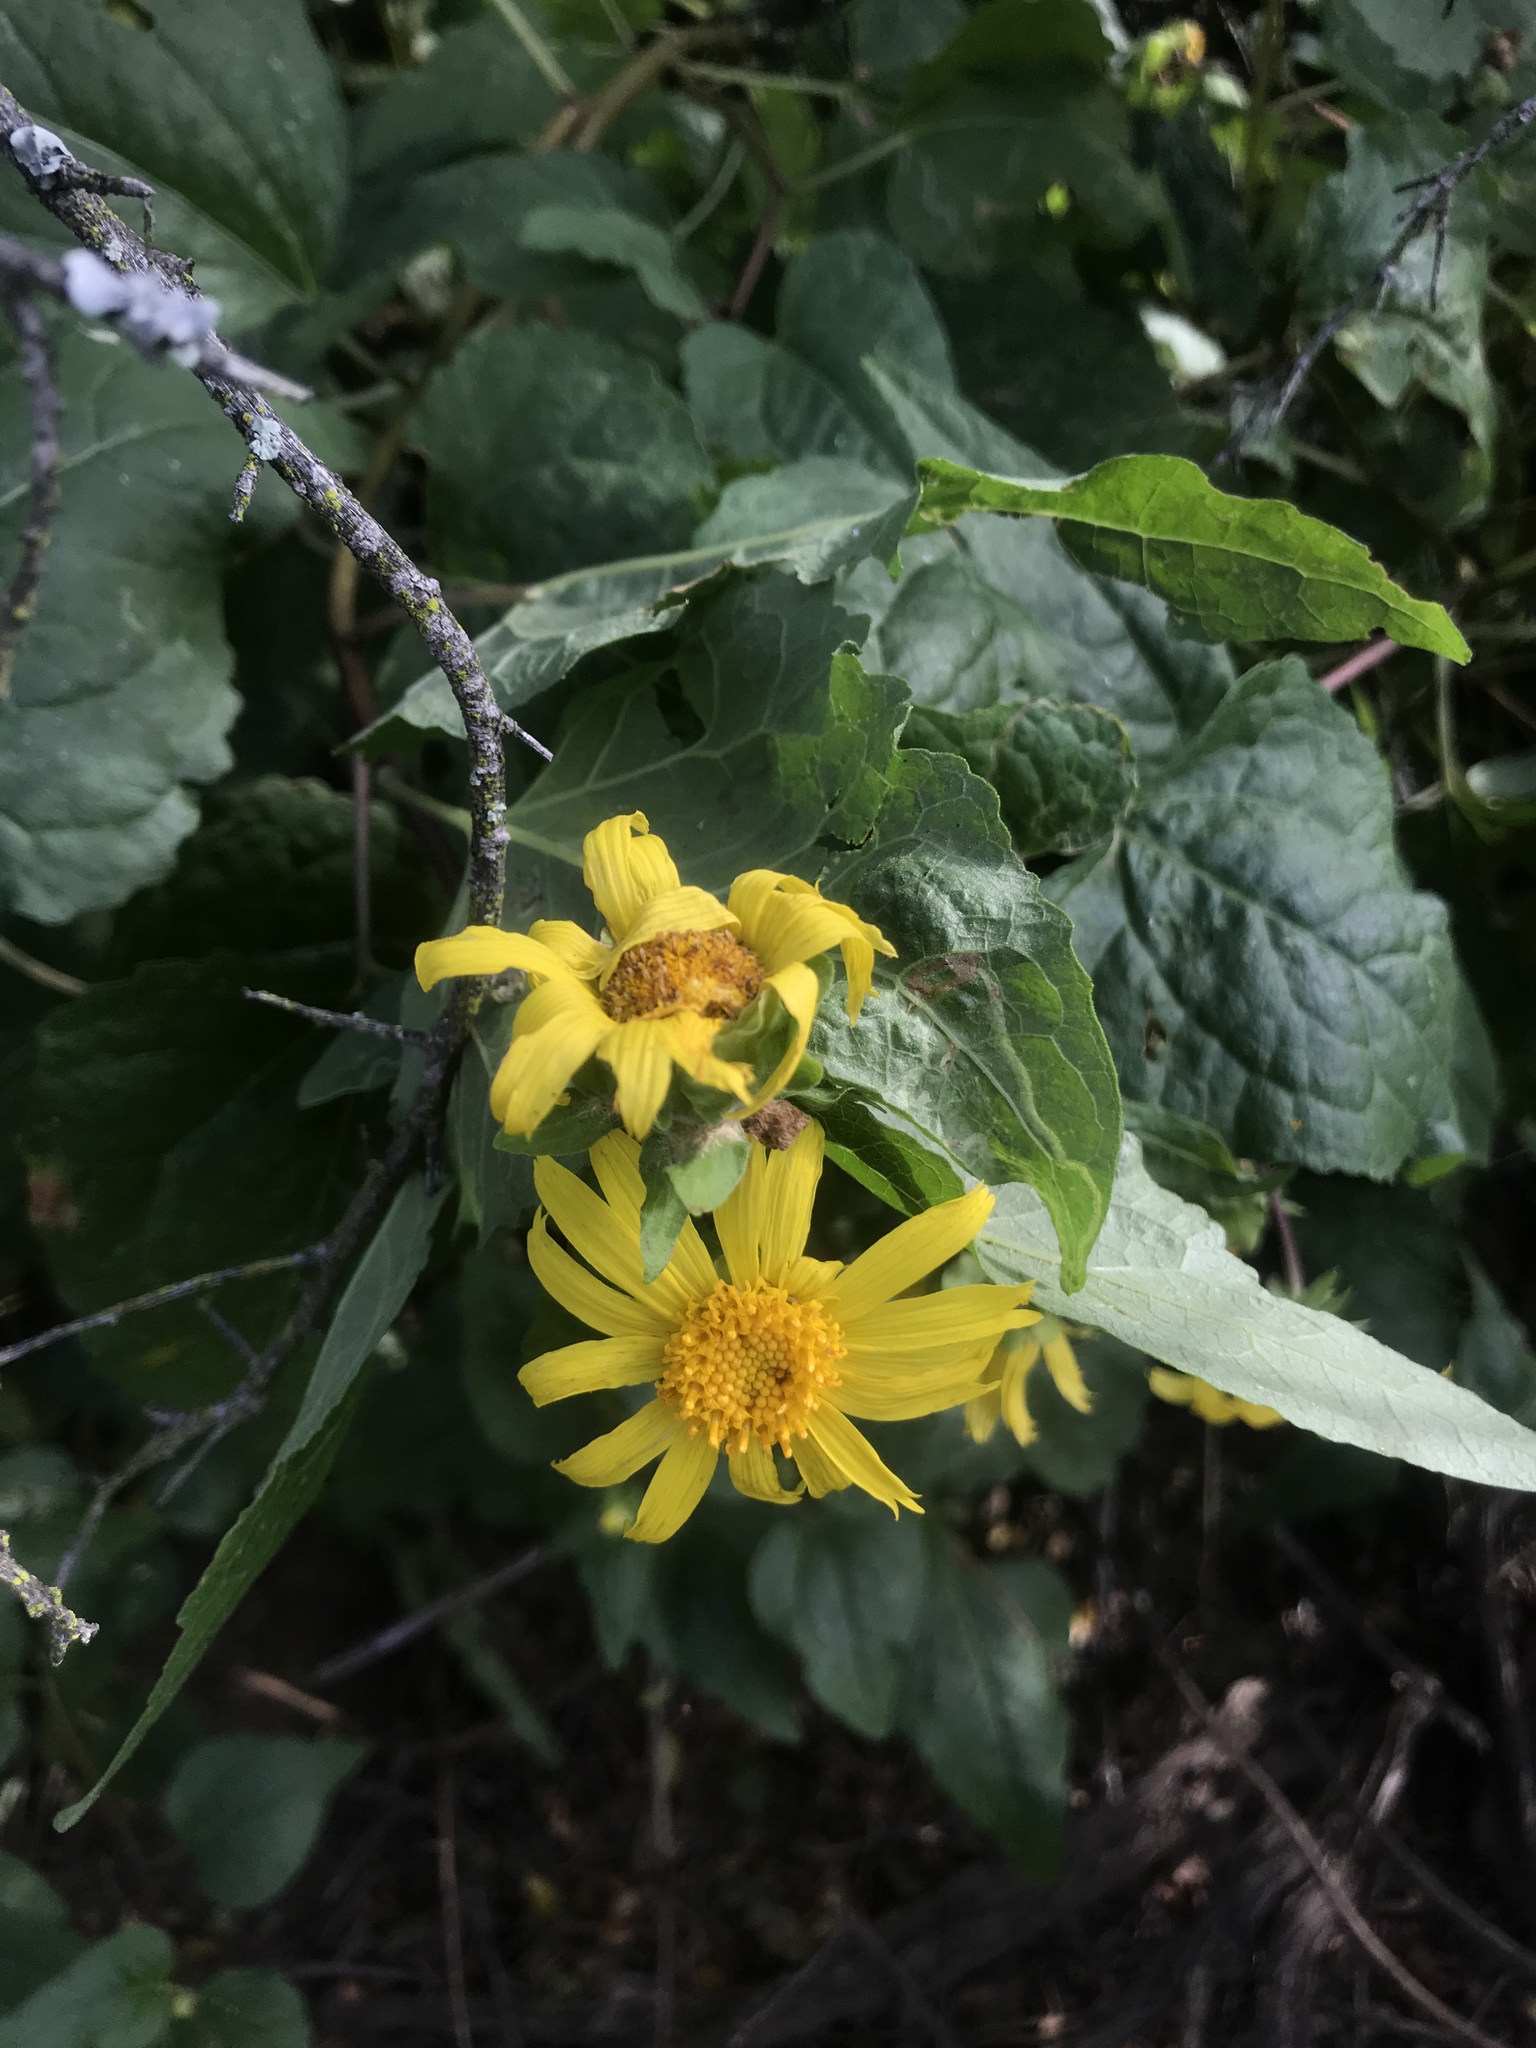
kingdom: Plantae
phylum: Tracheophyta
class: Magnoliopsida
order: Asterales
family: Asteraceae
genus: Venegasia
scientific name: Venegasia carpesioides
